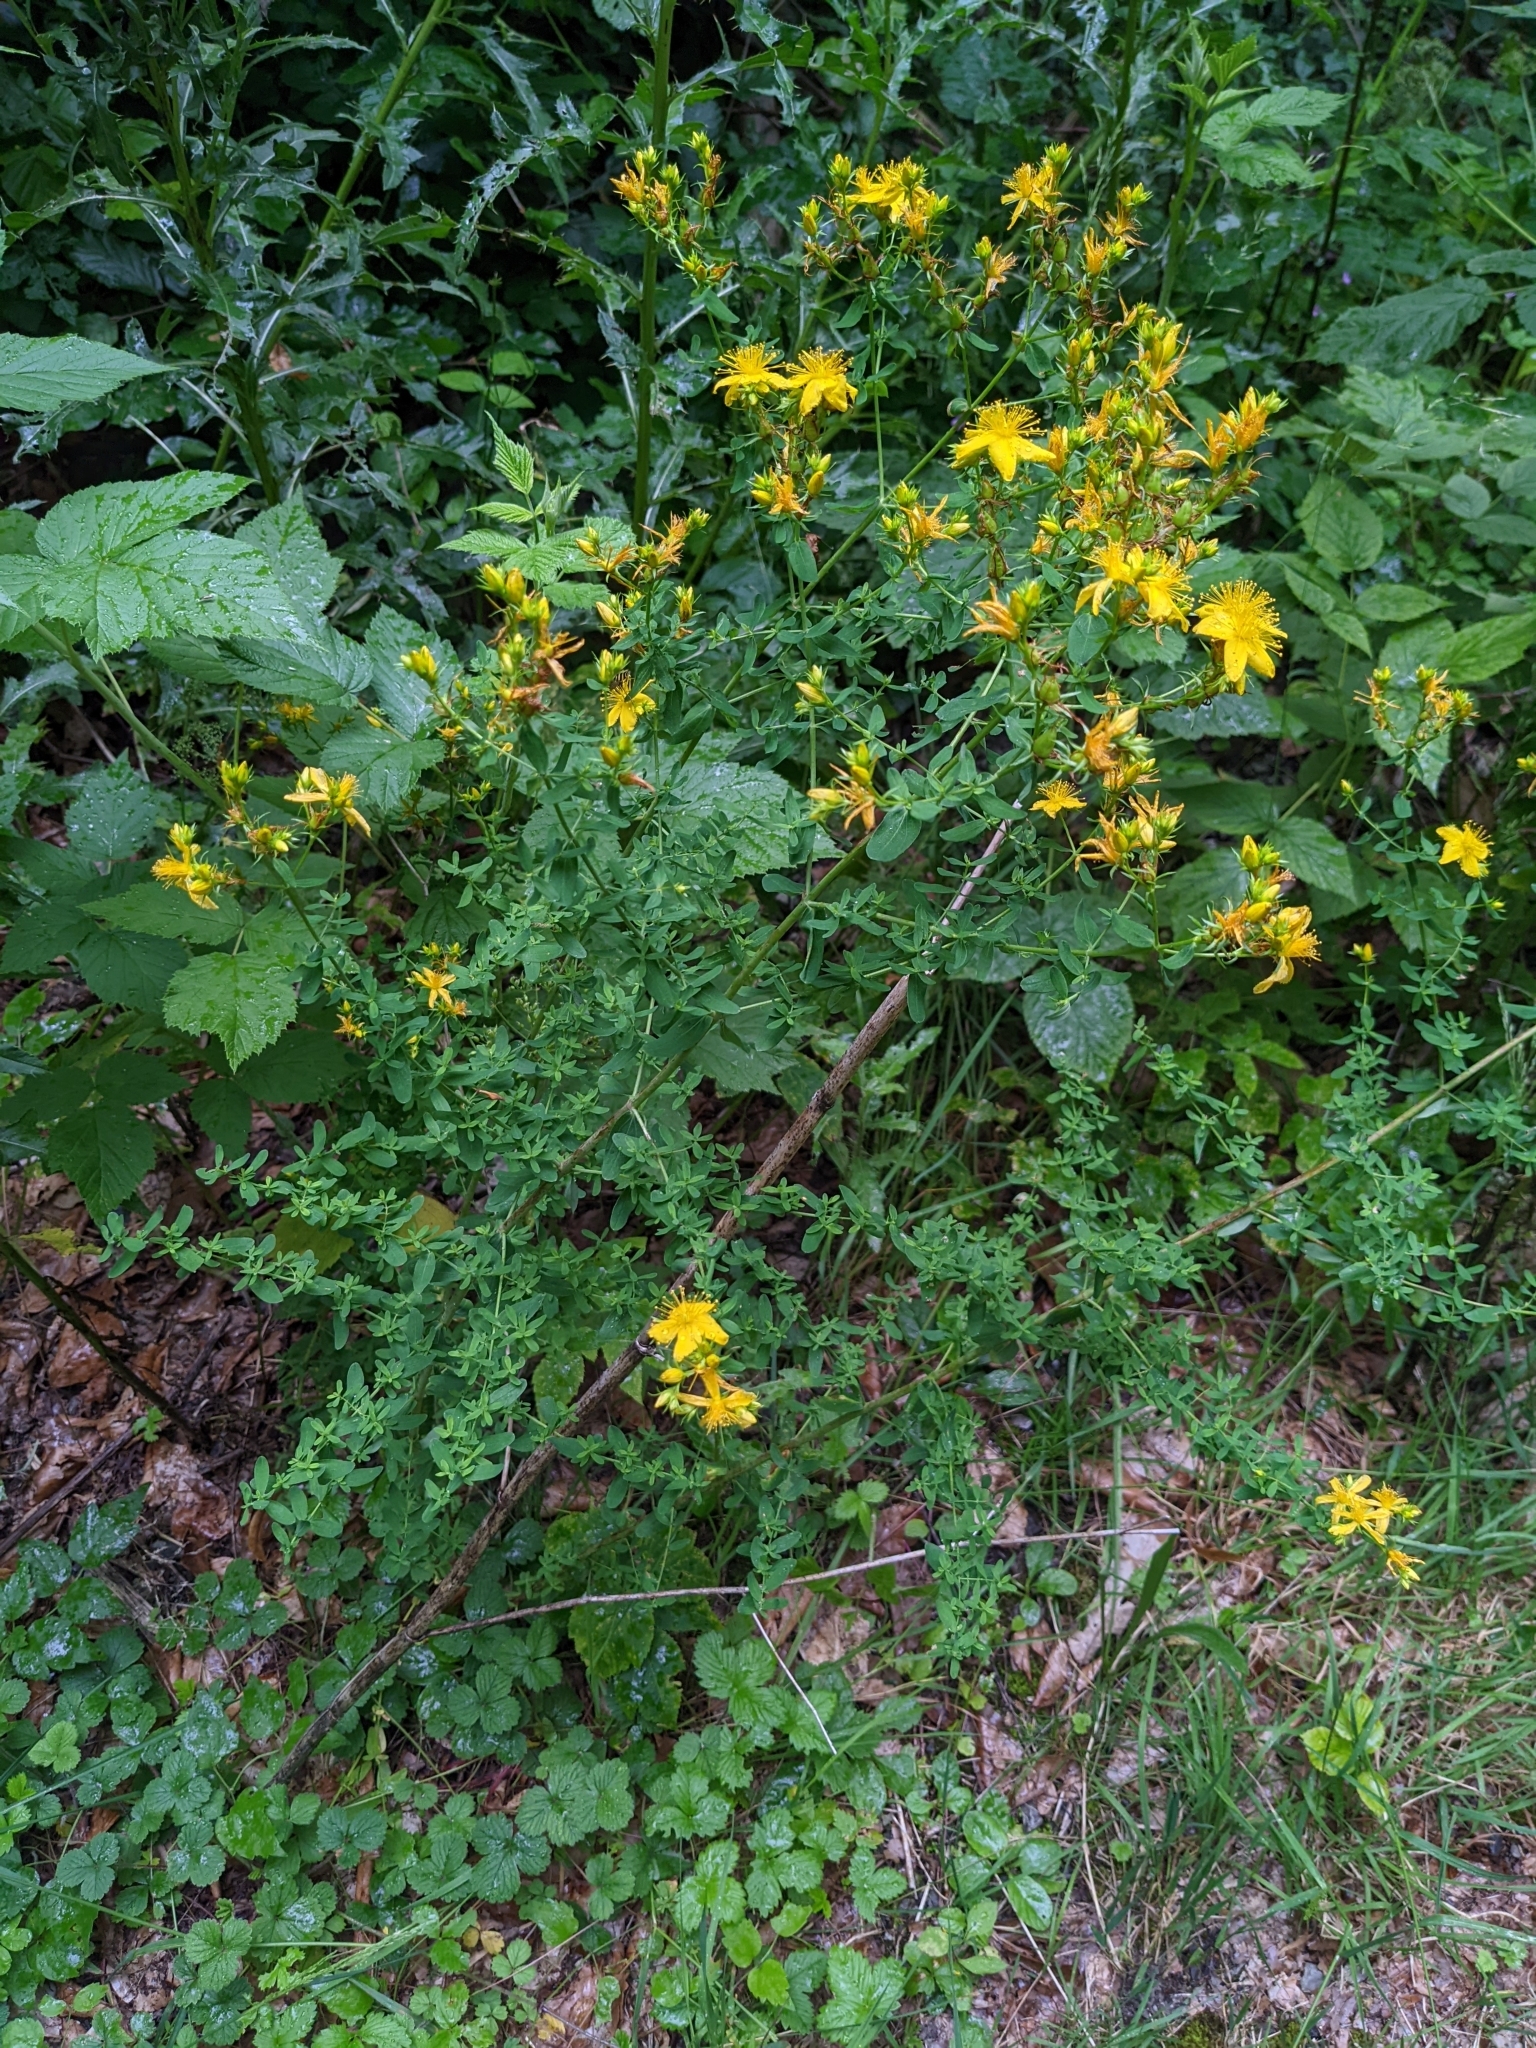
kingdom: Plantae
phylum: Tracheophyta
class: Magnoliopsida
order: Malpighiales
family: Hypericaceae
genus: Hypericum
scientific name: Hypericum perforatum
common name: Common st. johnswort
